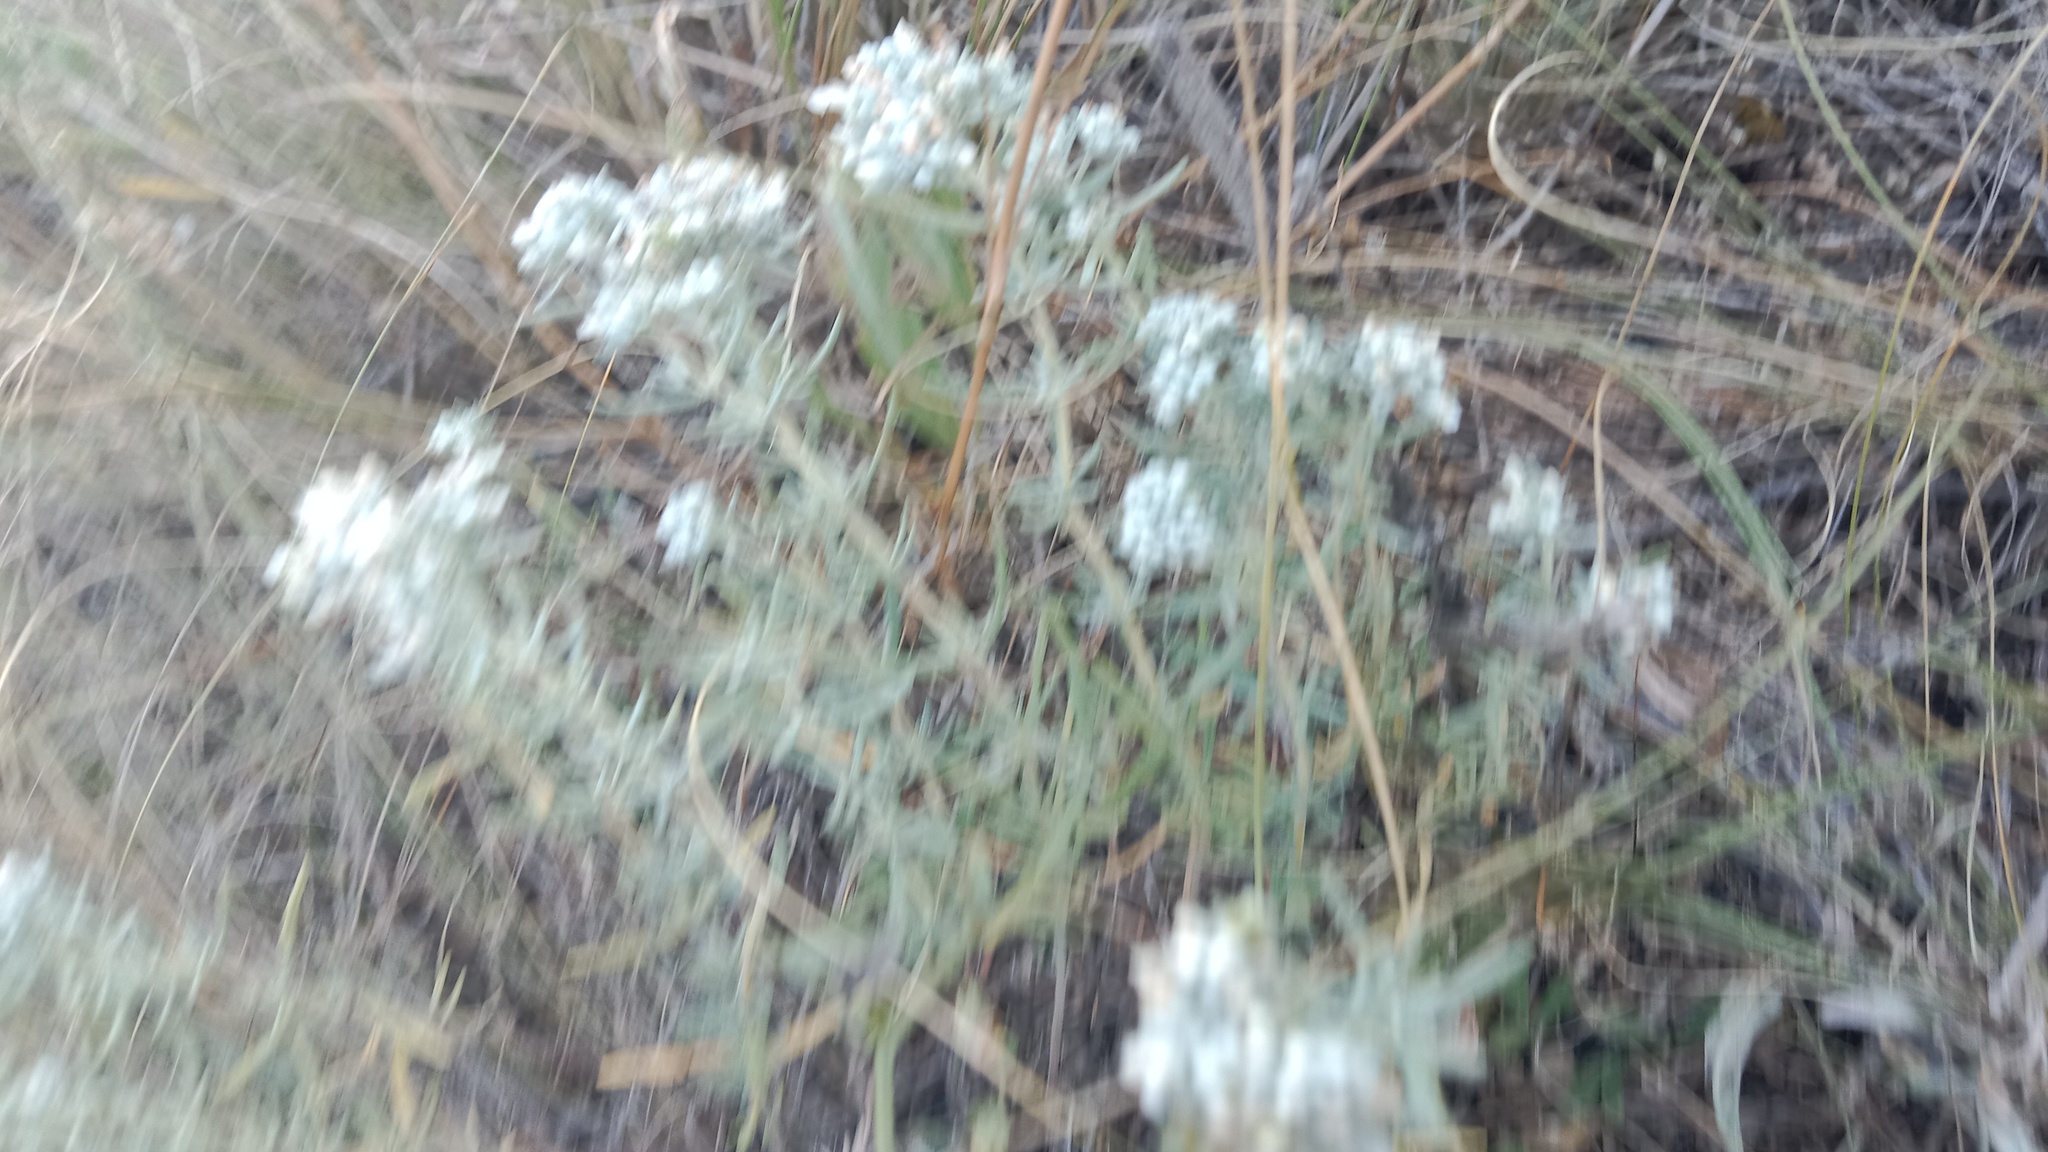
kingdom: Plantae
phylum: Tracheophyta
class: Magnoliopsida
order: Lamiales
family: Lamiaceae
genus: Teucrium
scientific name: Teucrium polium
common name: Poley
